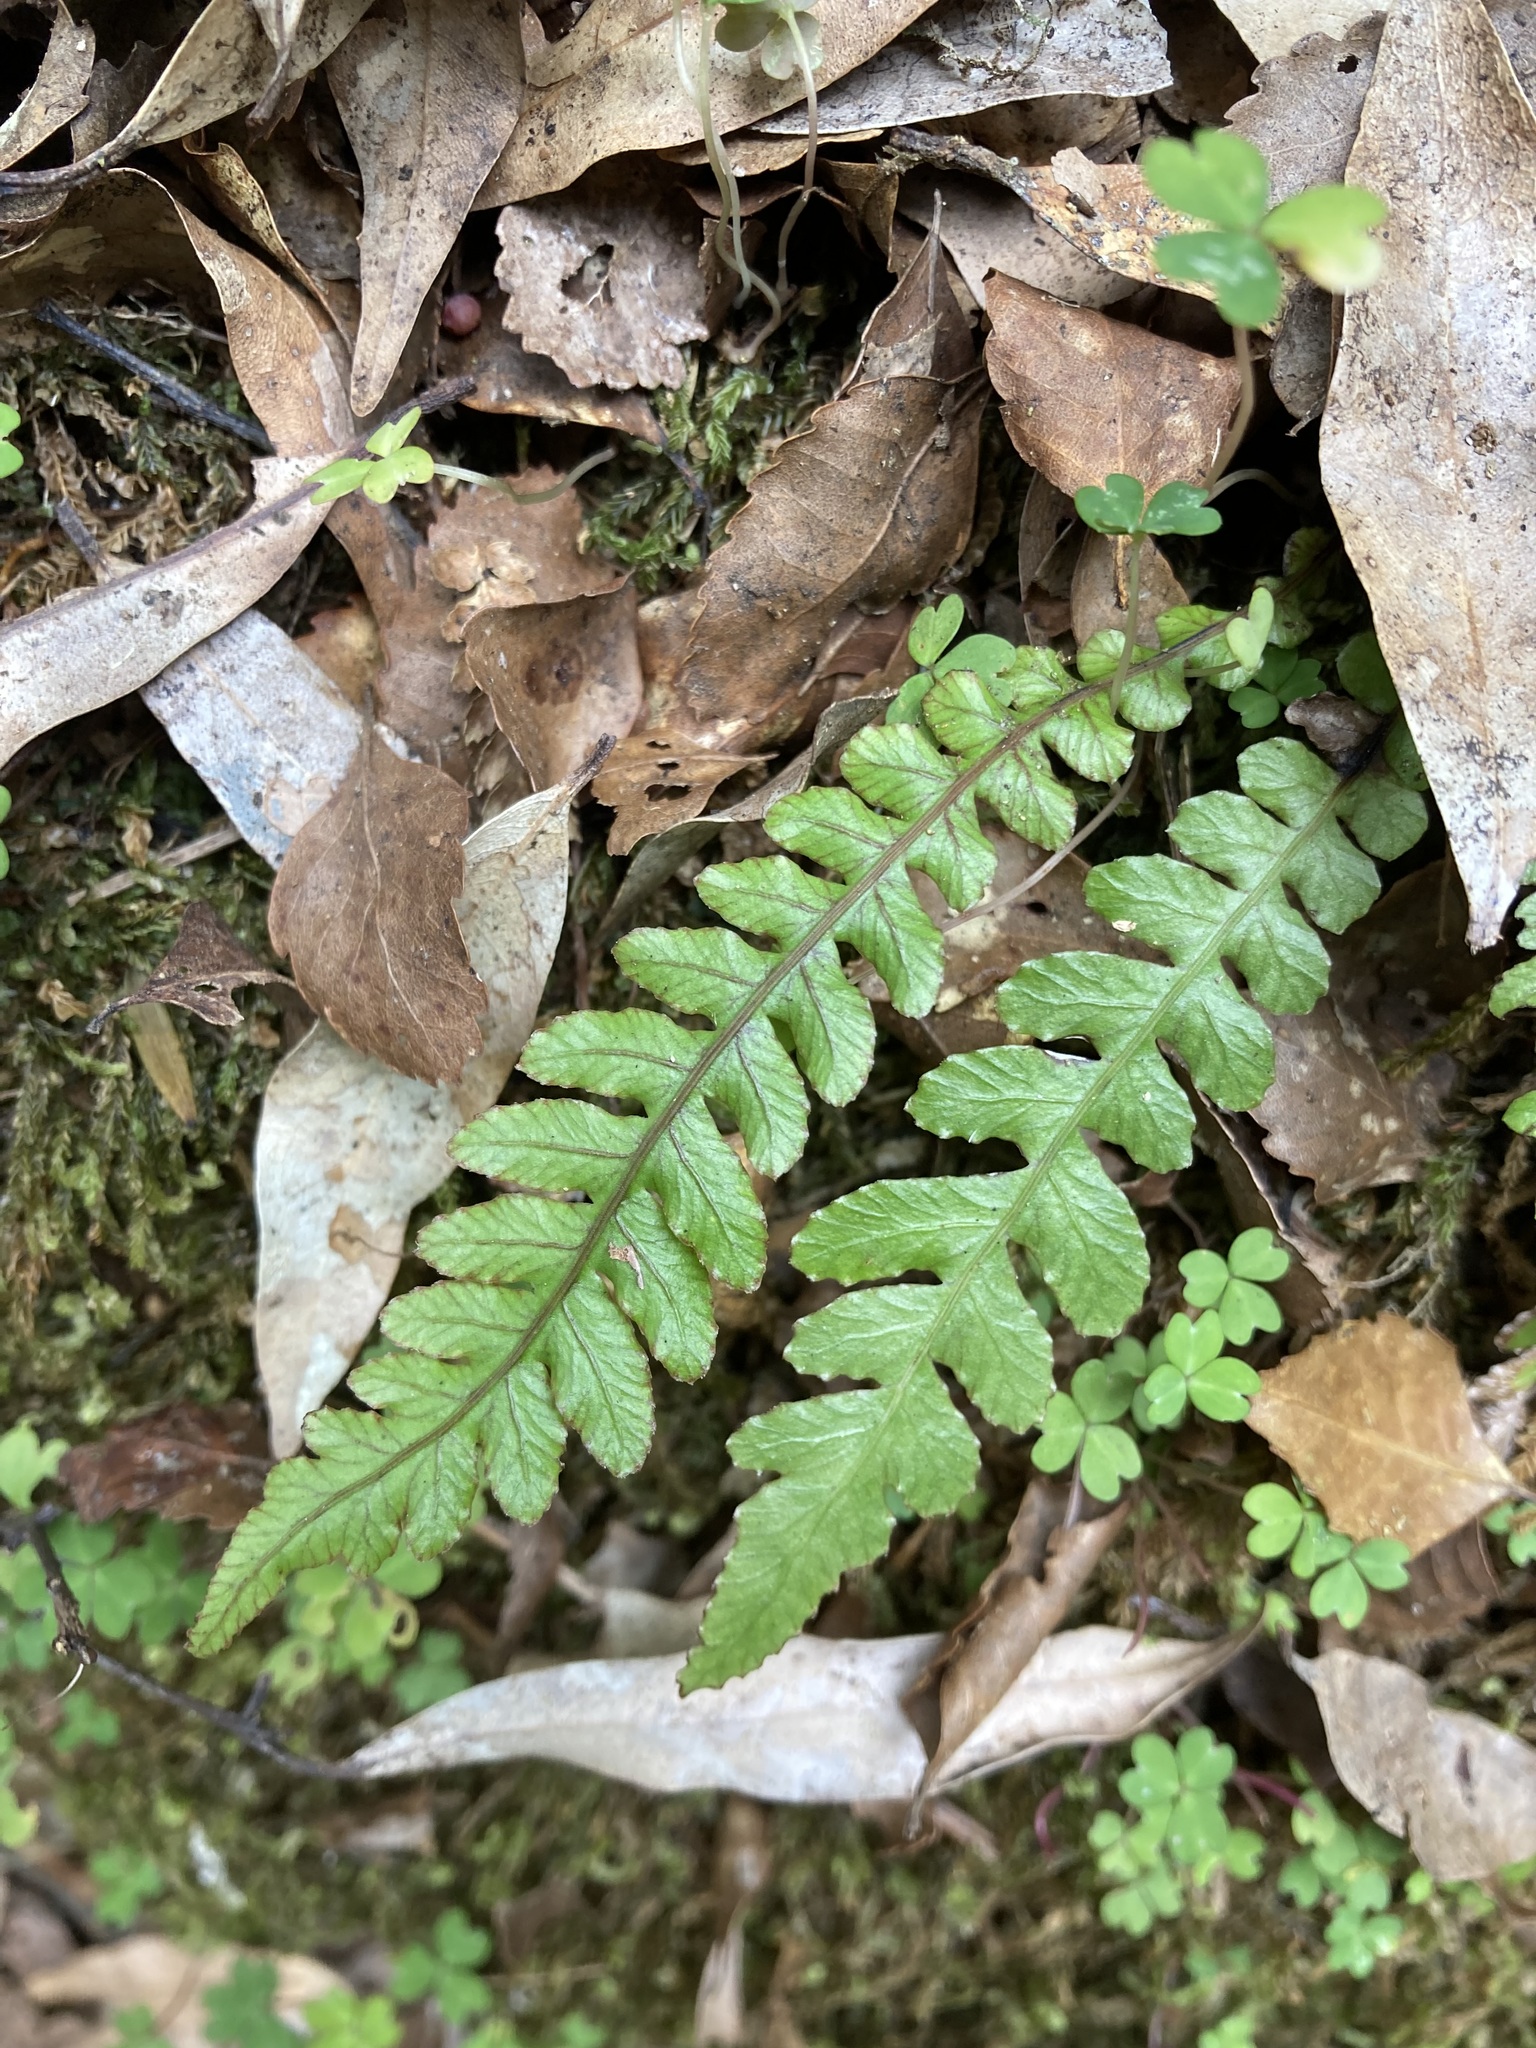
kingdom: Plantae
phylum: Tracheophyta
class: Polypodiopsida
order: Polypodiales
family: Blechnaceae
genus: Austroblechnum
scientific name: Austroblechnum membranaceum
